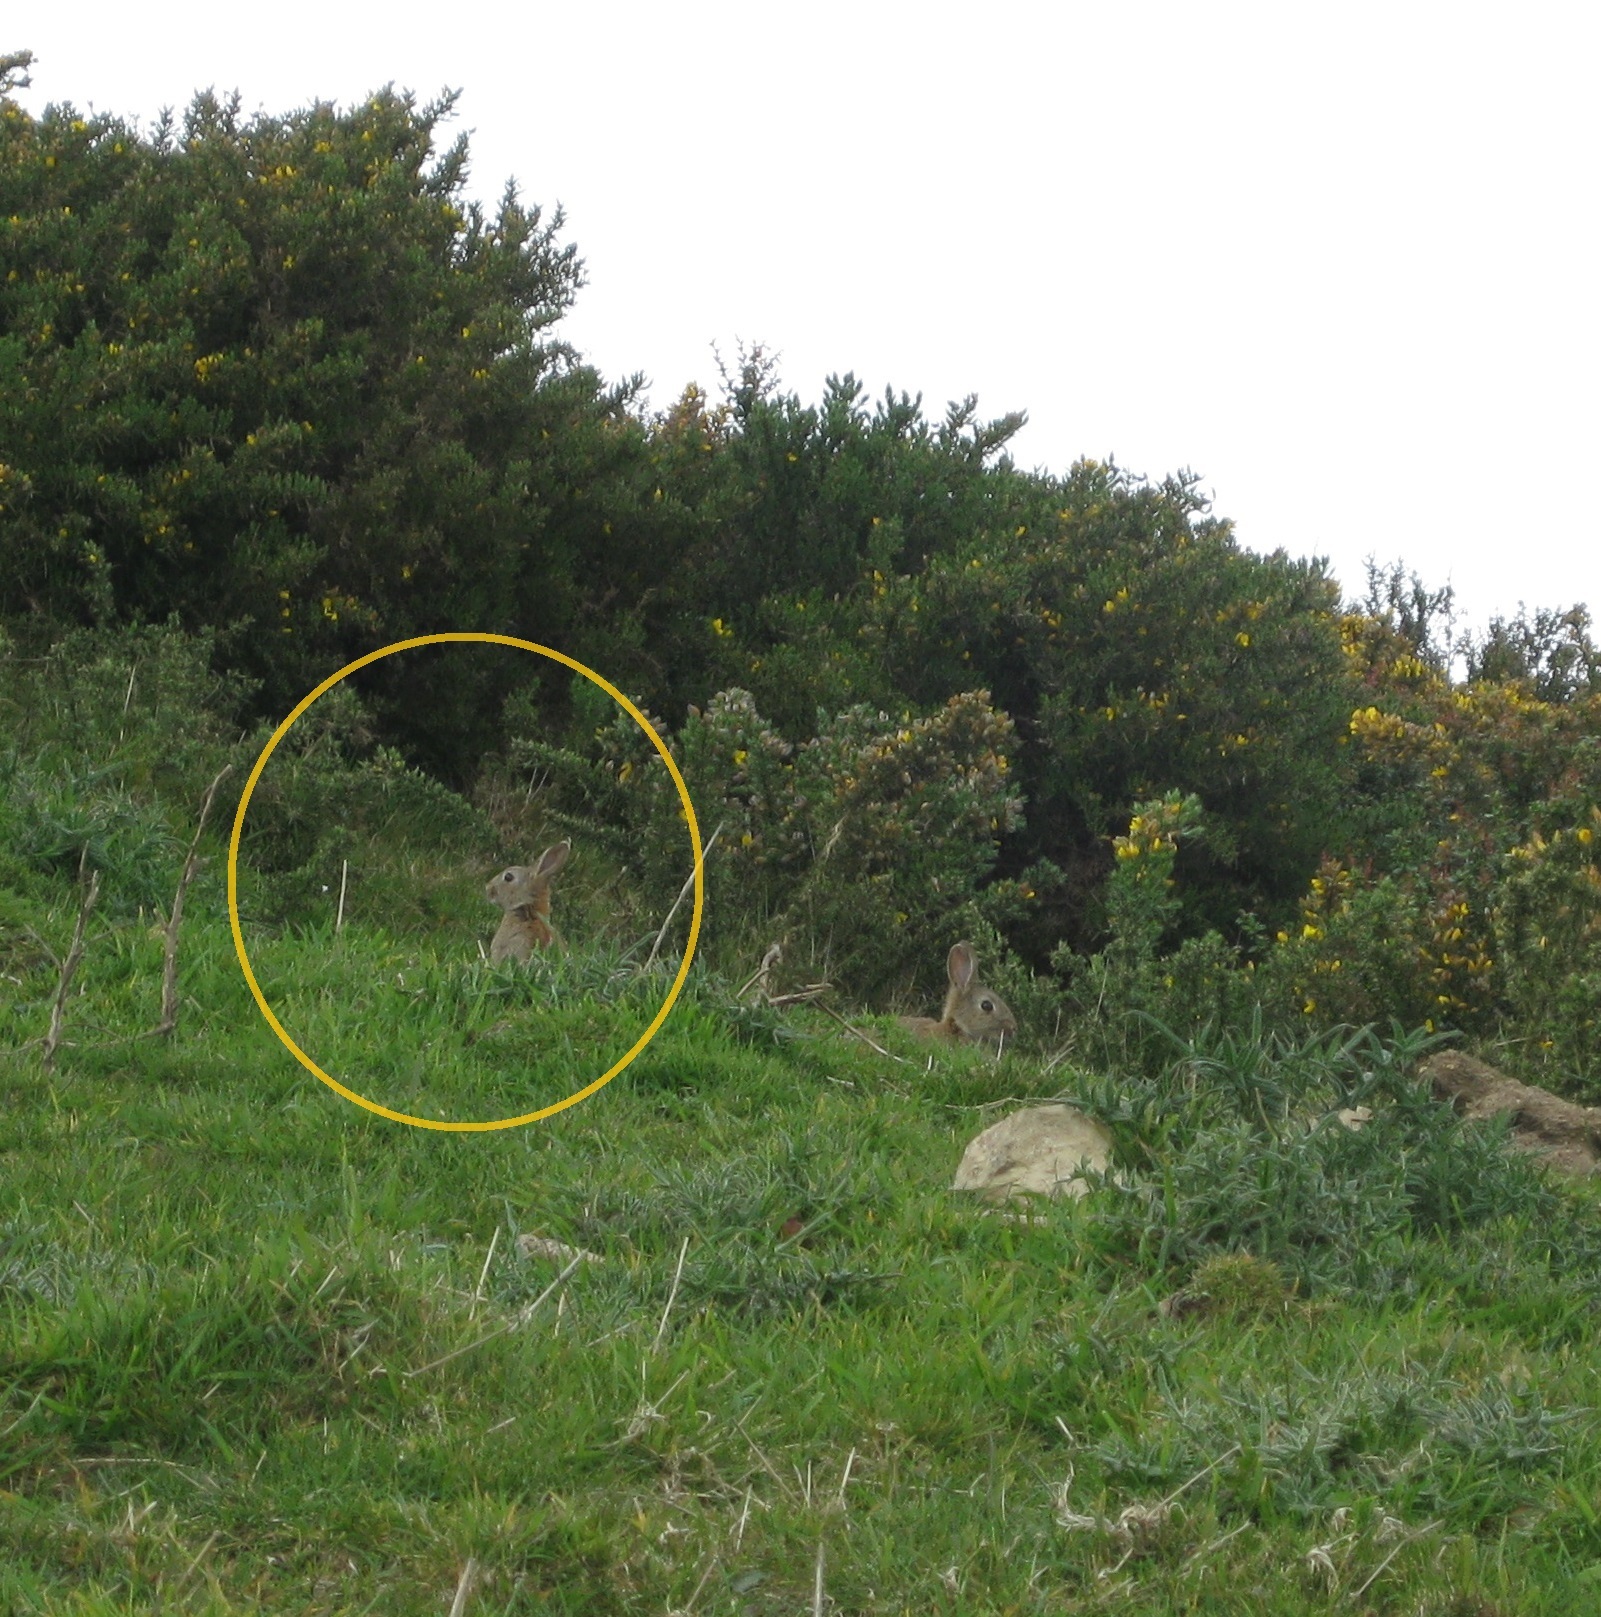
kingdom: Animalia
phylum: Chordata
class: Mammalia
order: Lagomorpha
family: Leporidae
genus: Oryctolagus
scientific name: Oryctolagus cuniculus
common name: European rabbit
